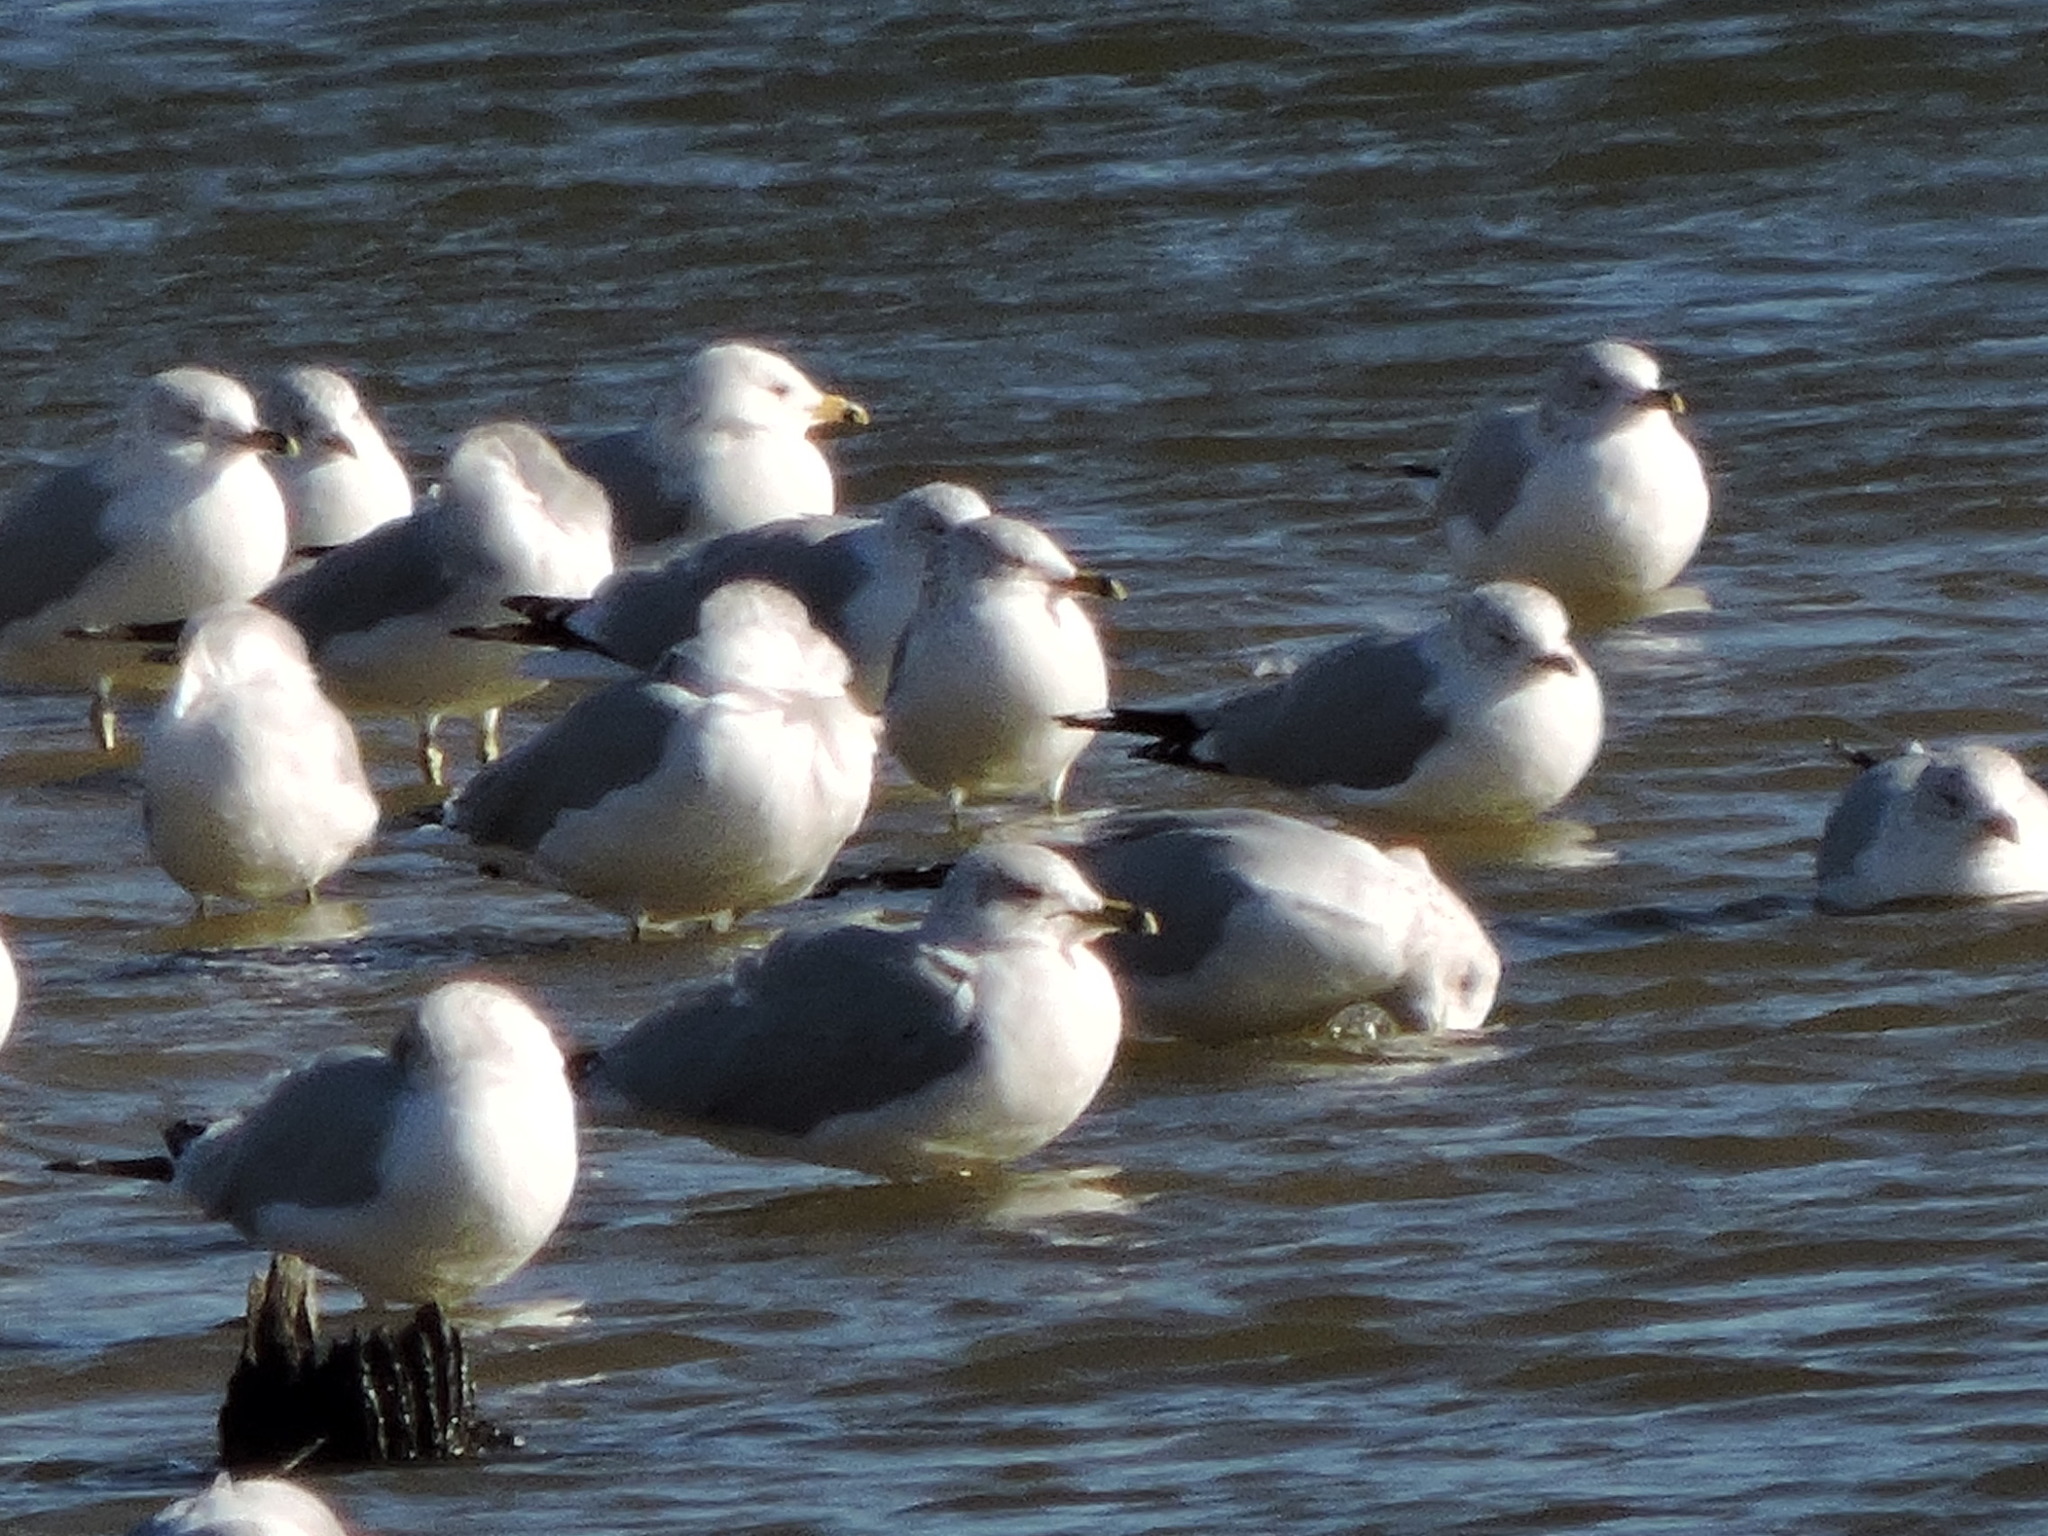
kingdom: Animalia
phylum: Chordata
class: Aves
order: Charadriiformes
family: Laridae
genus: Larus
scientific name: Larus delawarensis
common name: Ring-billed gull
